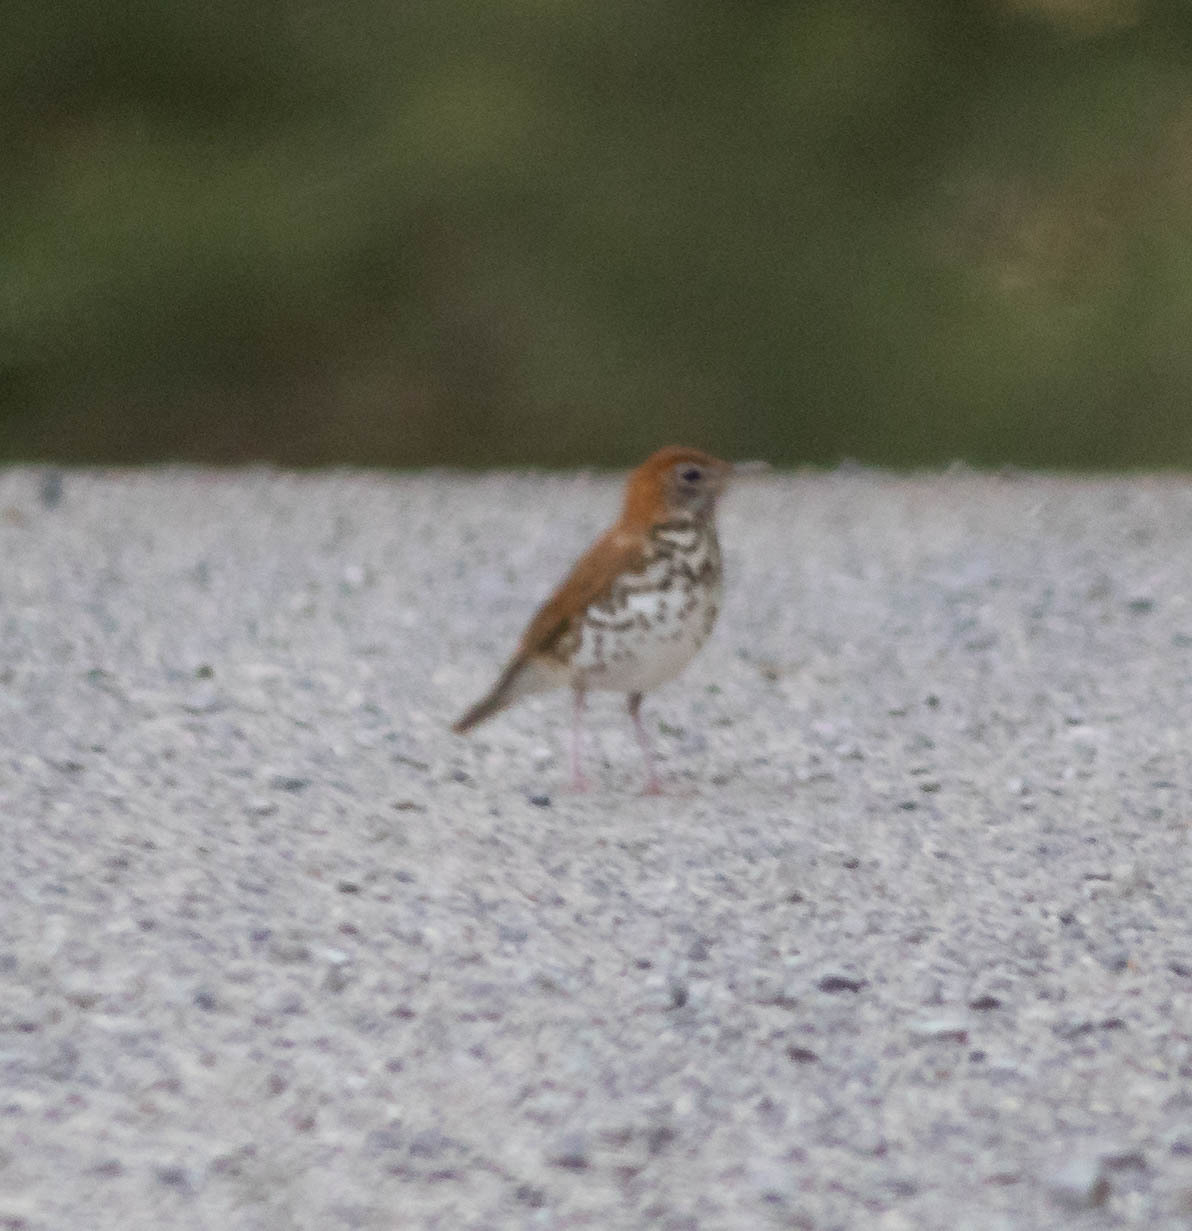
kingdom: Animalia
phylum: Chordata
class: Aves
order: Passeriformes
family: Turdidae
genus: Hylocichla
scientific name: Hylocichla mustelina
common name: Wood thrush
